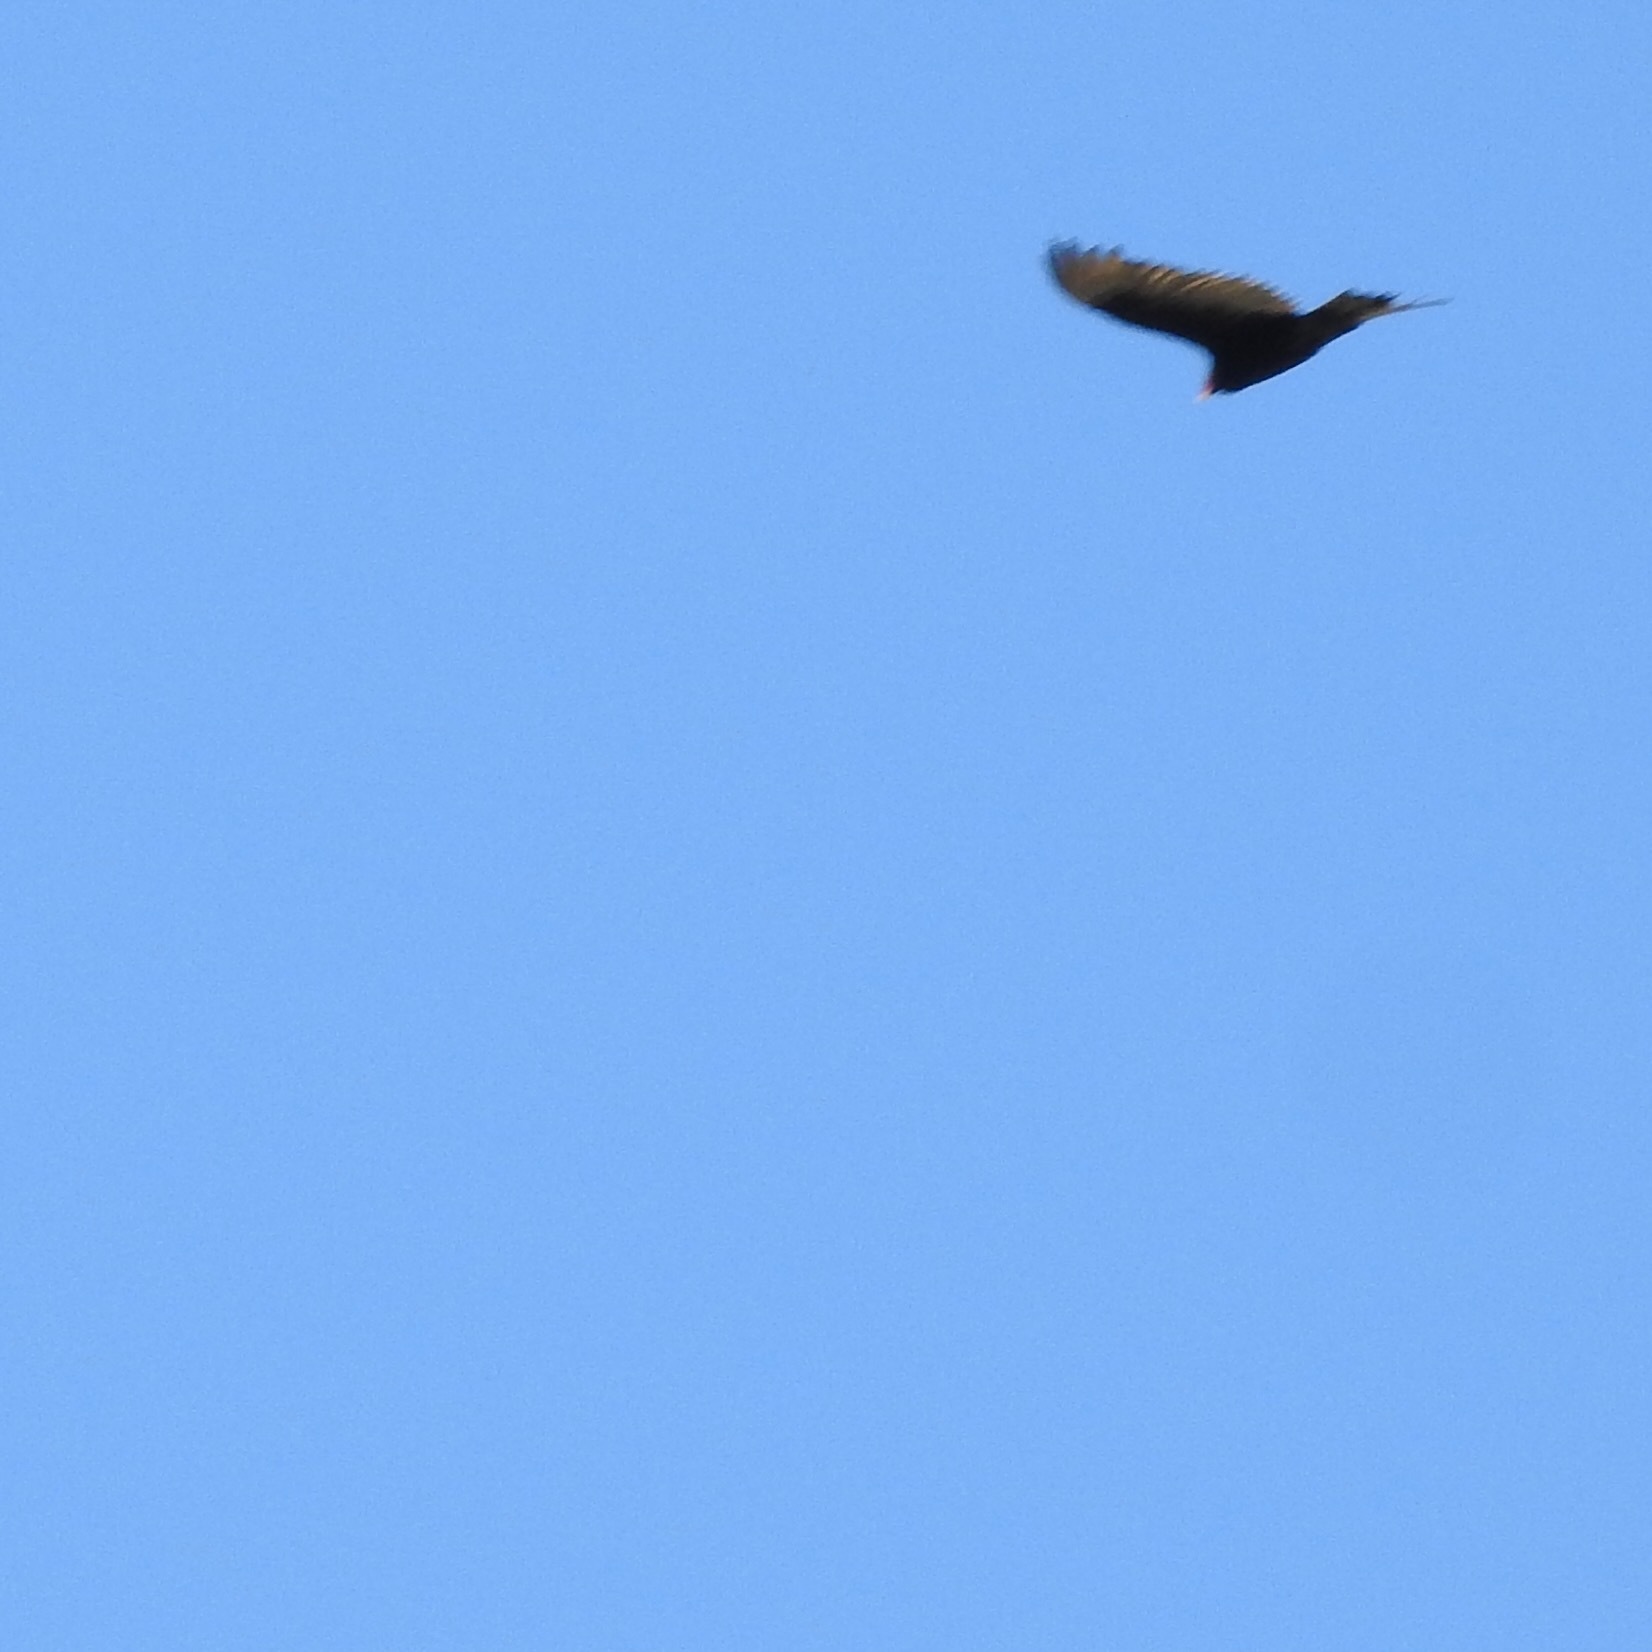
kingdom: Animalia
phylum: Chordata
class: Aves
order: Accipitriformes
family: Cathartidae
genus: Cathartes
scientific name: Cathartes aura
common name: Turkey vulture
